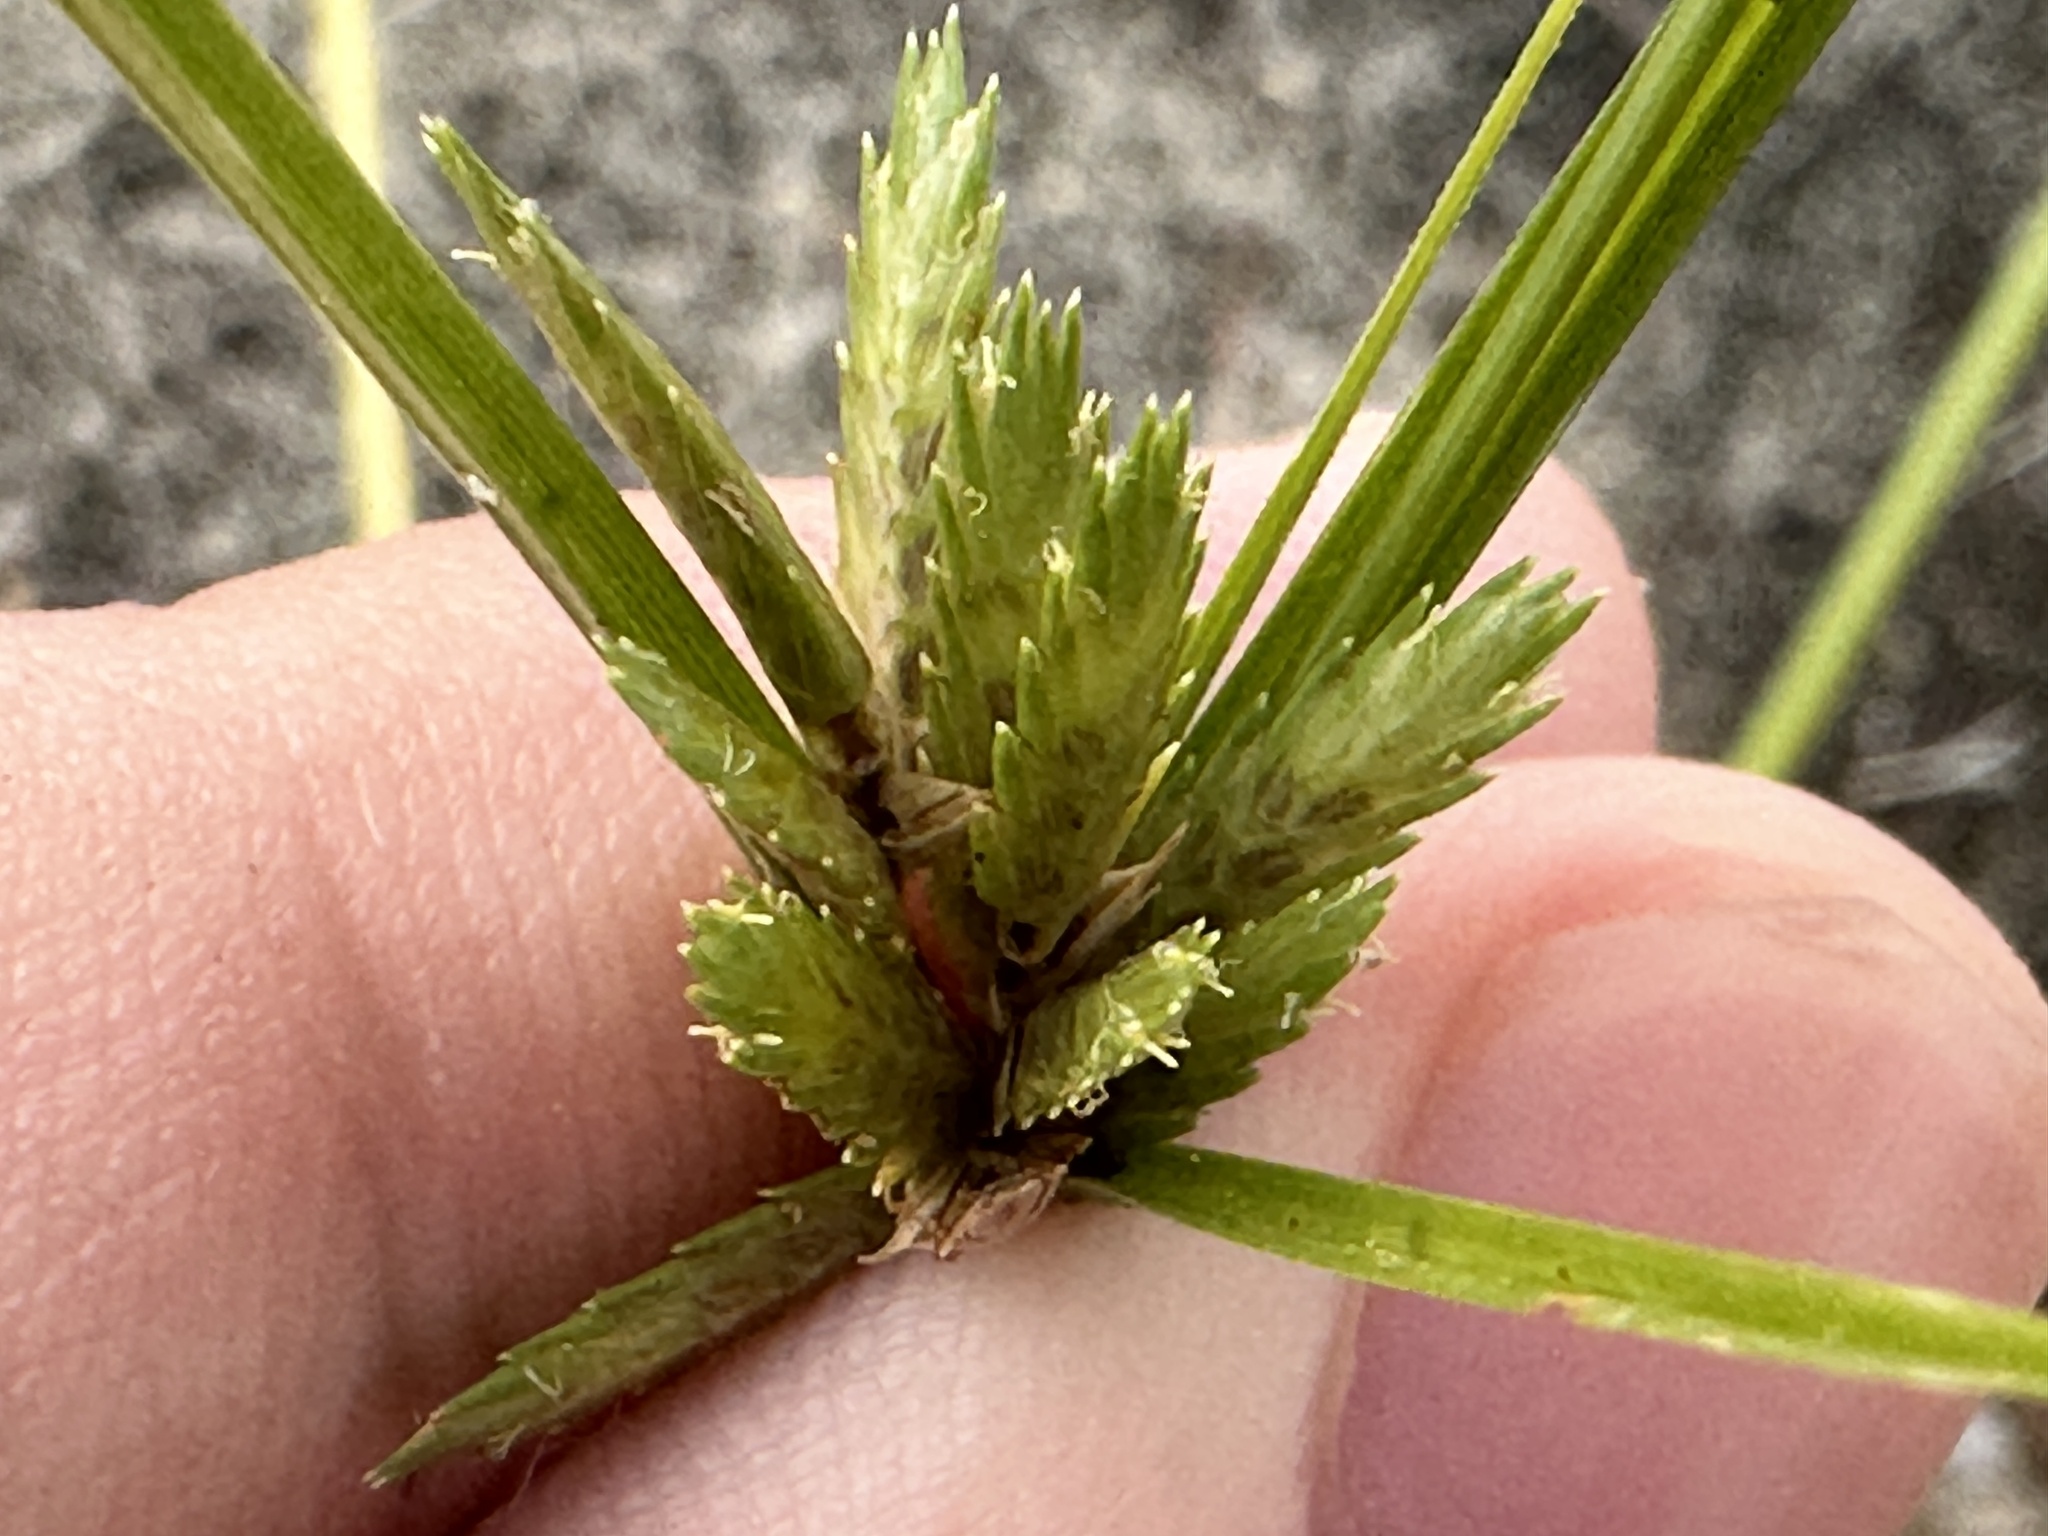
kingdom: Plantae
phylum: Tracheophyta
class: Liliopsida
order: Poales
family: Cyperaceae
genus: Cyperus
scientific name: Cyperus compressus
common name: Poorland flatsedge
